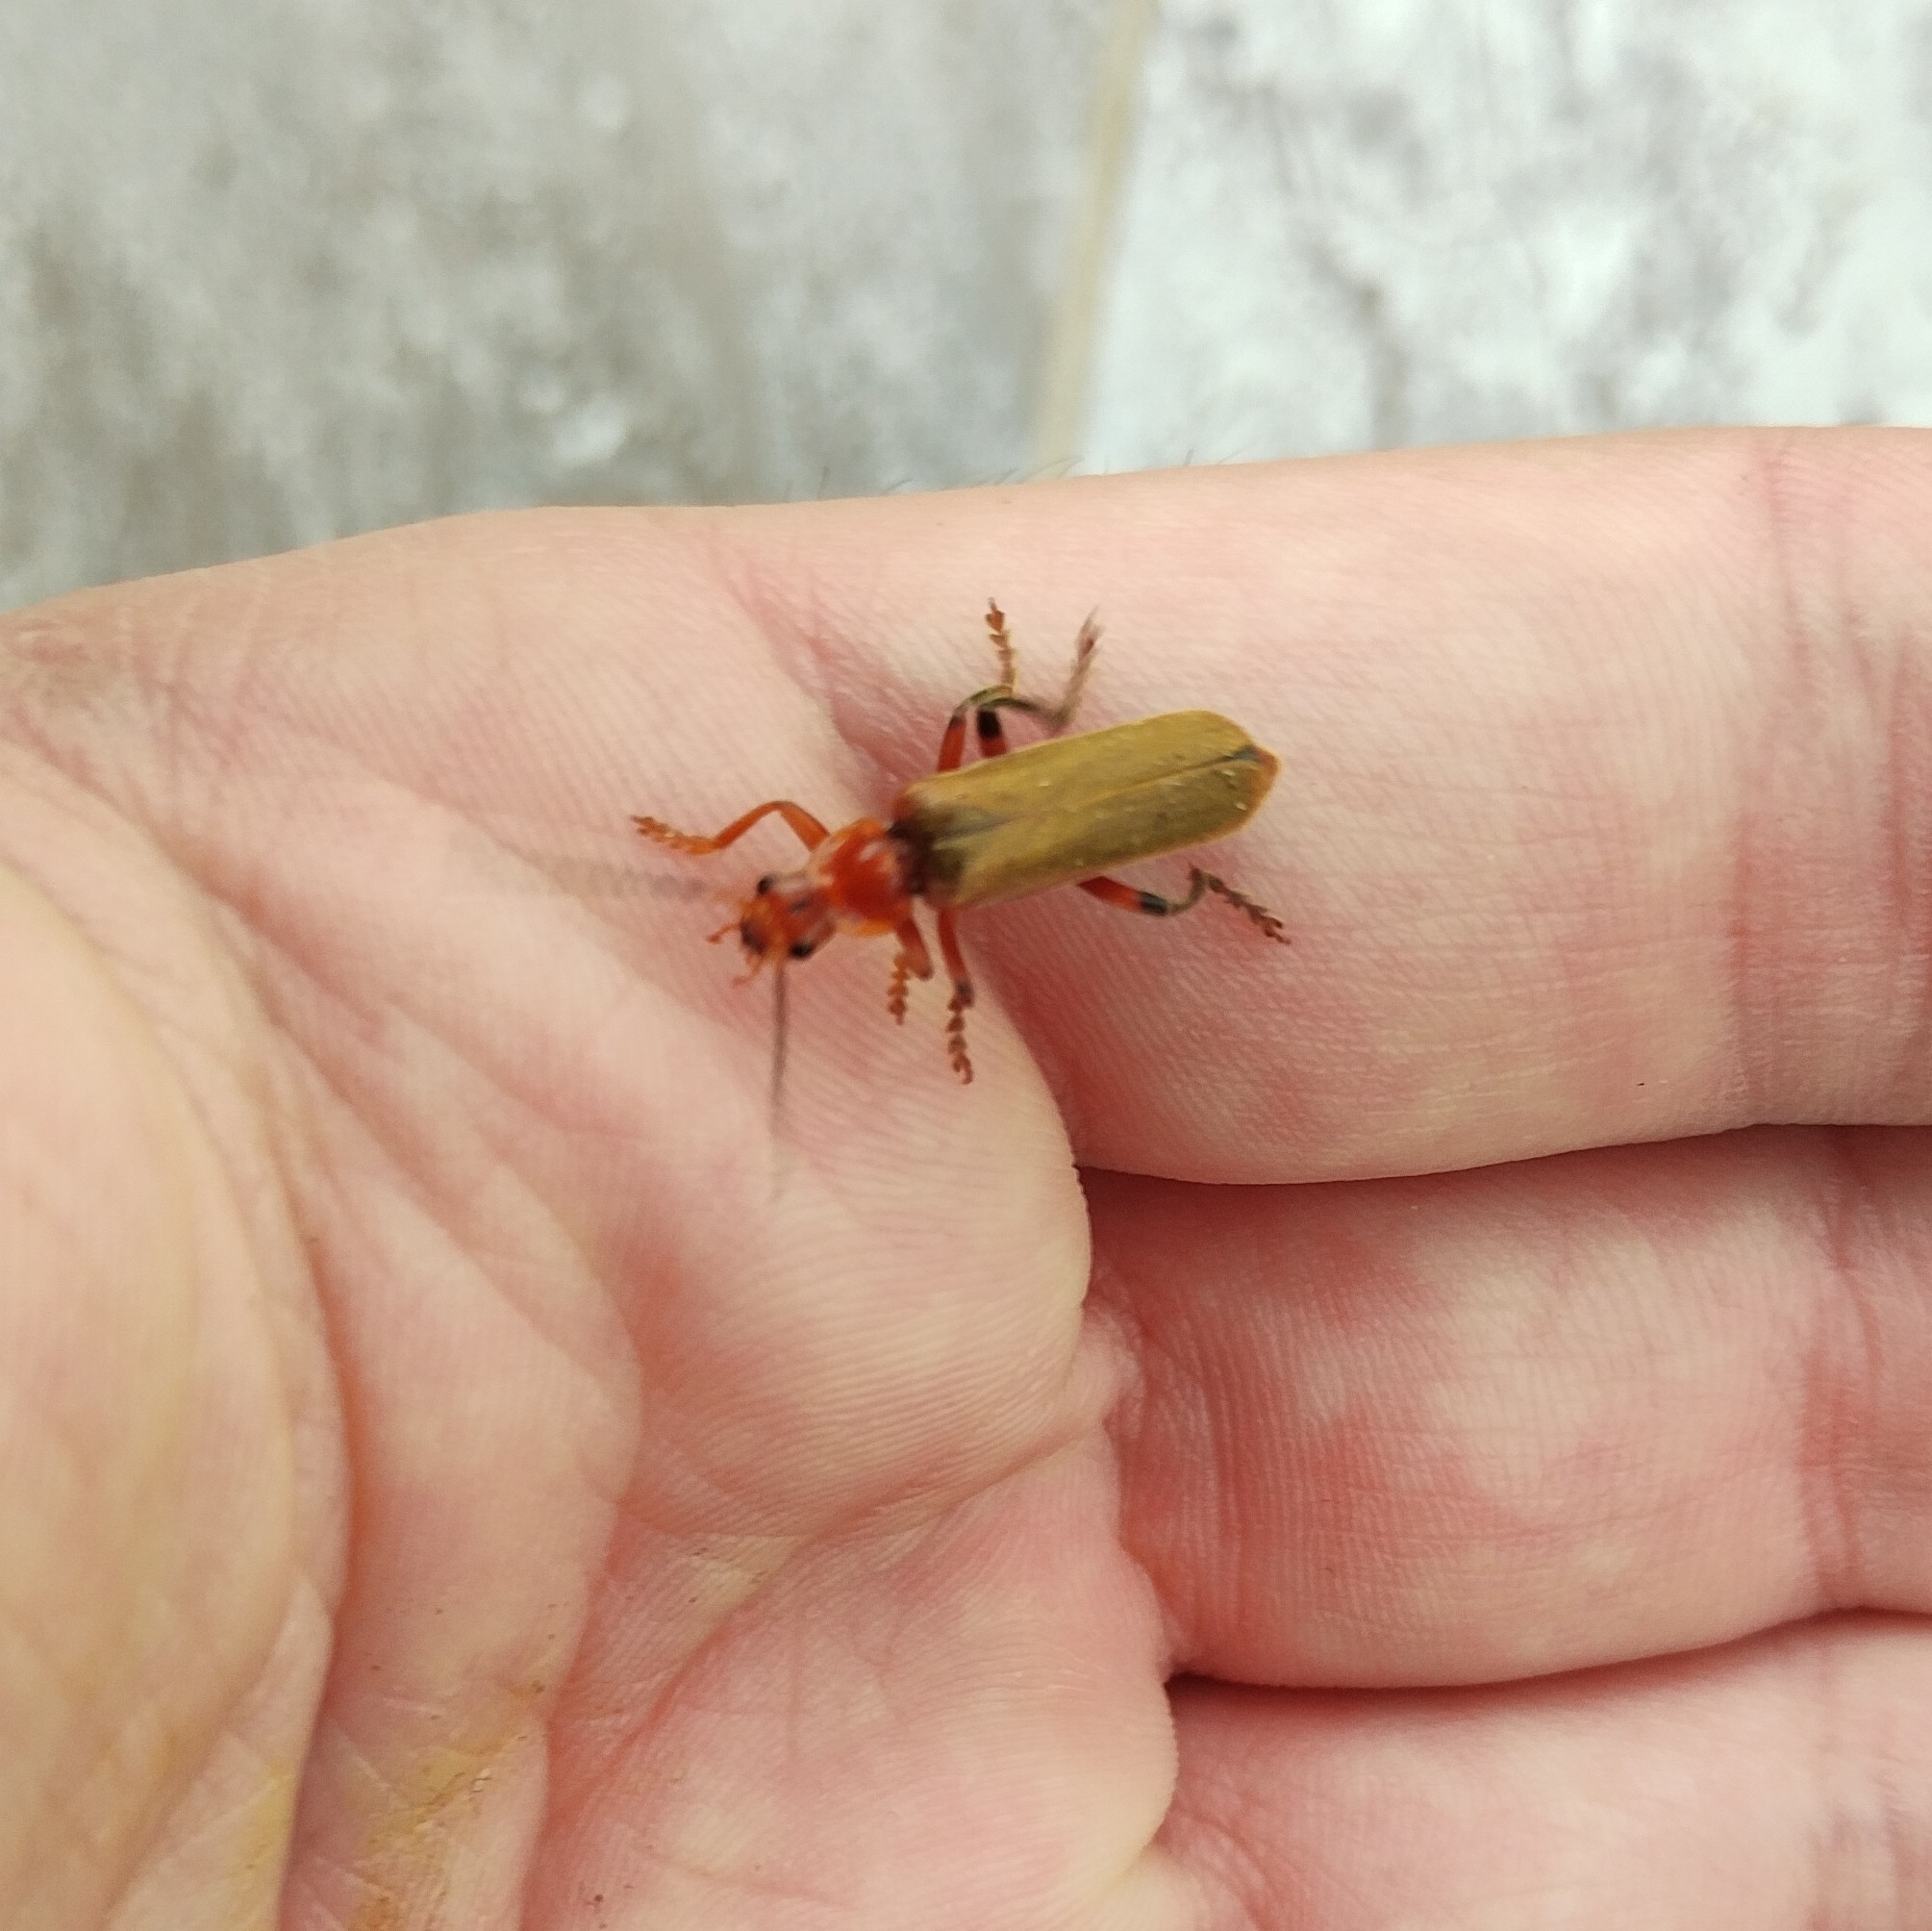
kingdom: Animalia
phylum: Arthropoda
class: Insecta
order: Coleoptera
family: Cantharidae
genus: Cantharis
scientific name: Cantharis livida
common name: Livid soldier beetle
